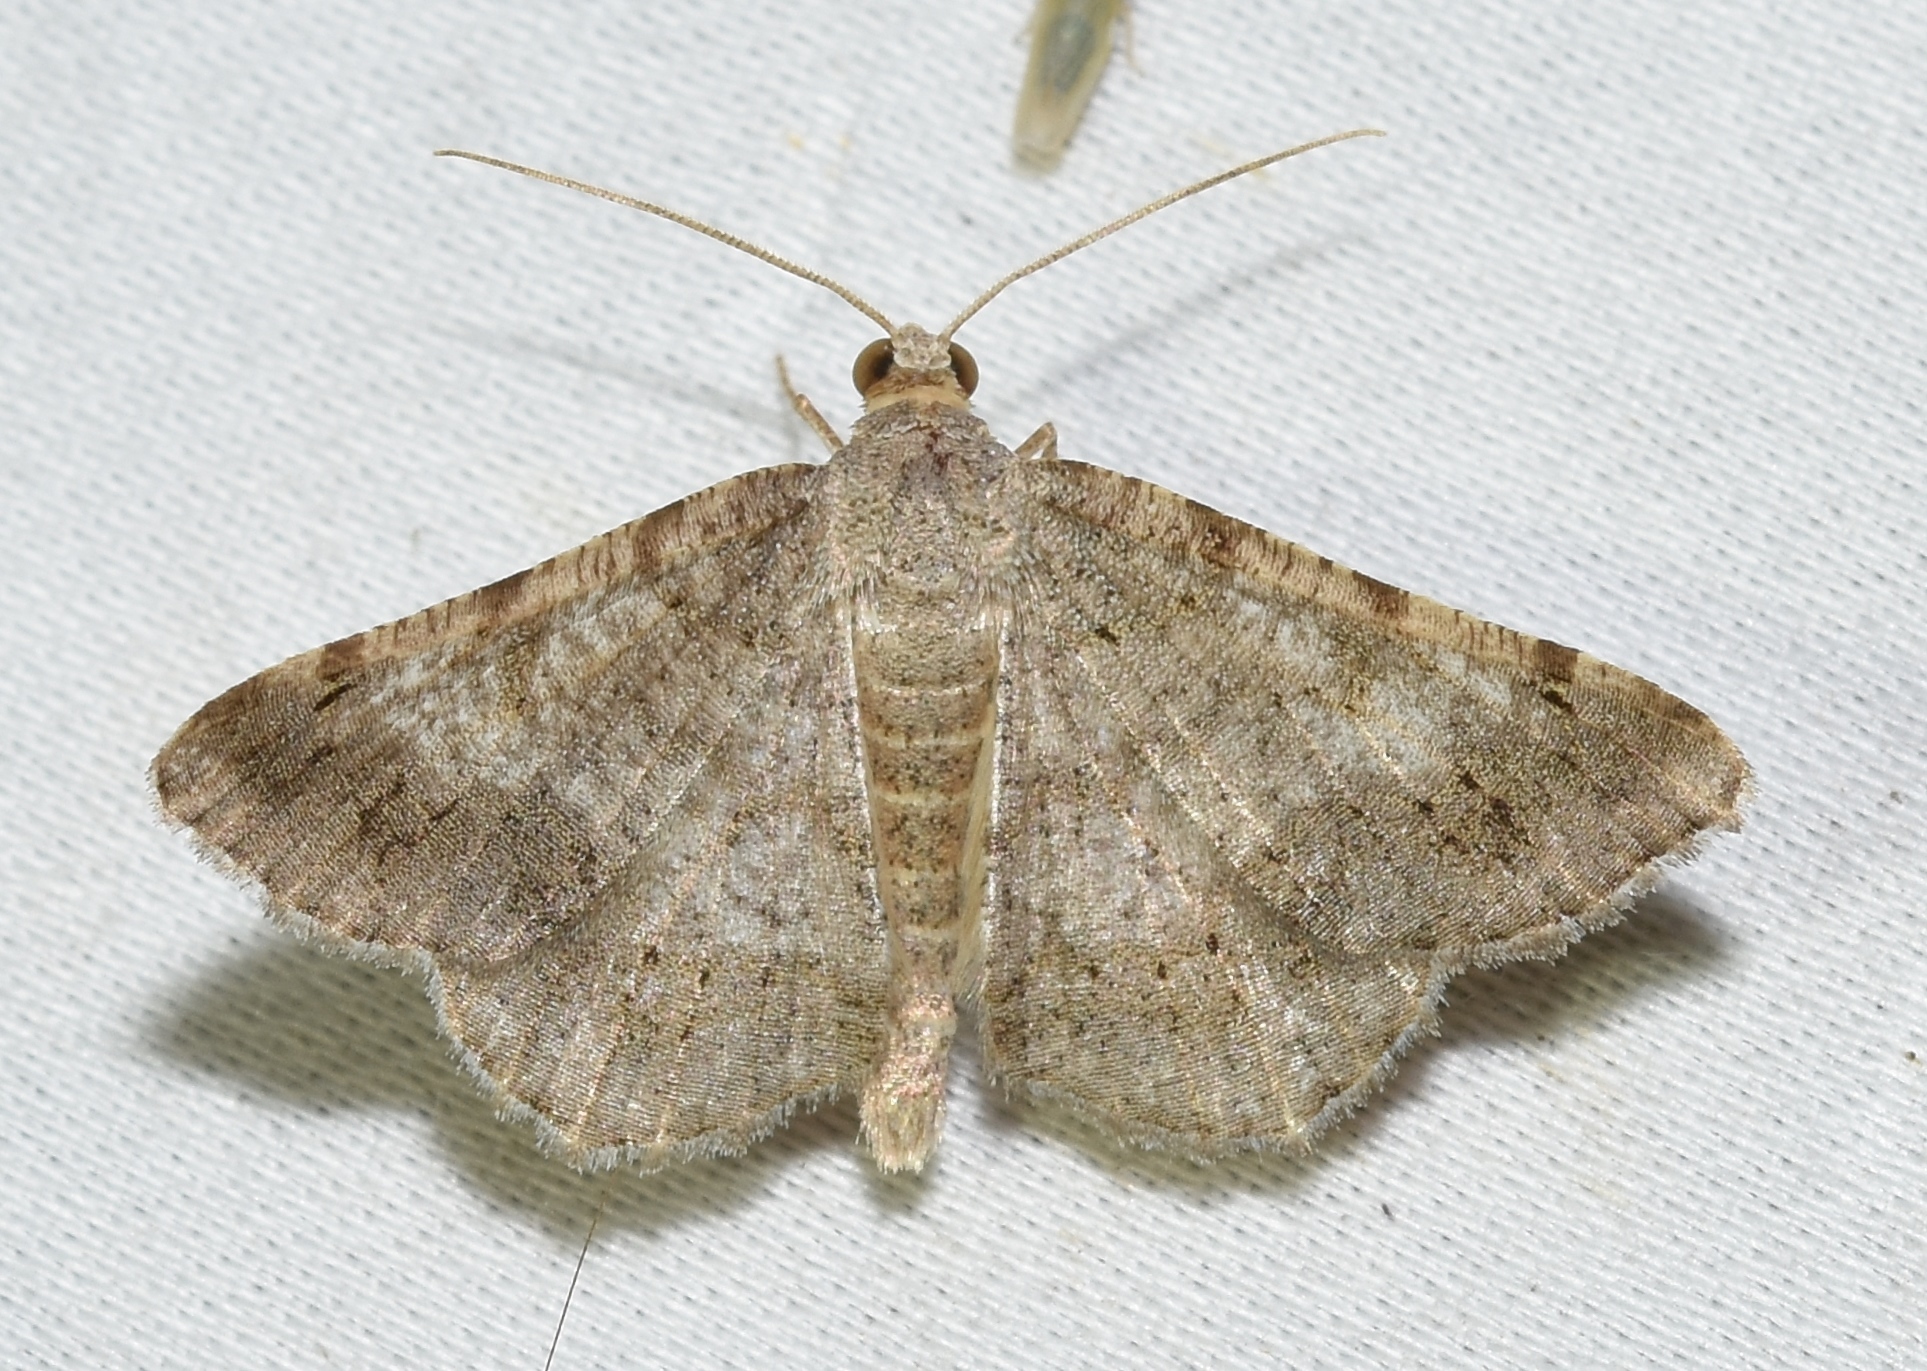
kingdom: Animalia
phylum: Arthropoda
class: Insecta
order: Lepidoptera
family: Geometridae
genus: Digrammia
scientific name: Digrammia ocellinata
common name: Faint-spotted angle
